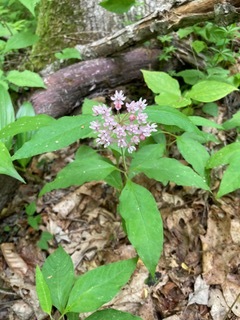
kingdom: Plantae
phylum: Tracheophyta
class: Magnoliopsida
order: Gentianales
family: Apocynaceae
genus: Asclepias
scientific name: Asclepias quadrifolia
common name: Whorled milkweed
